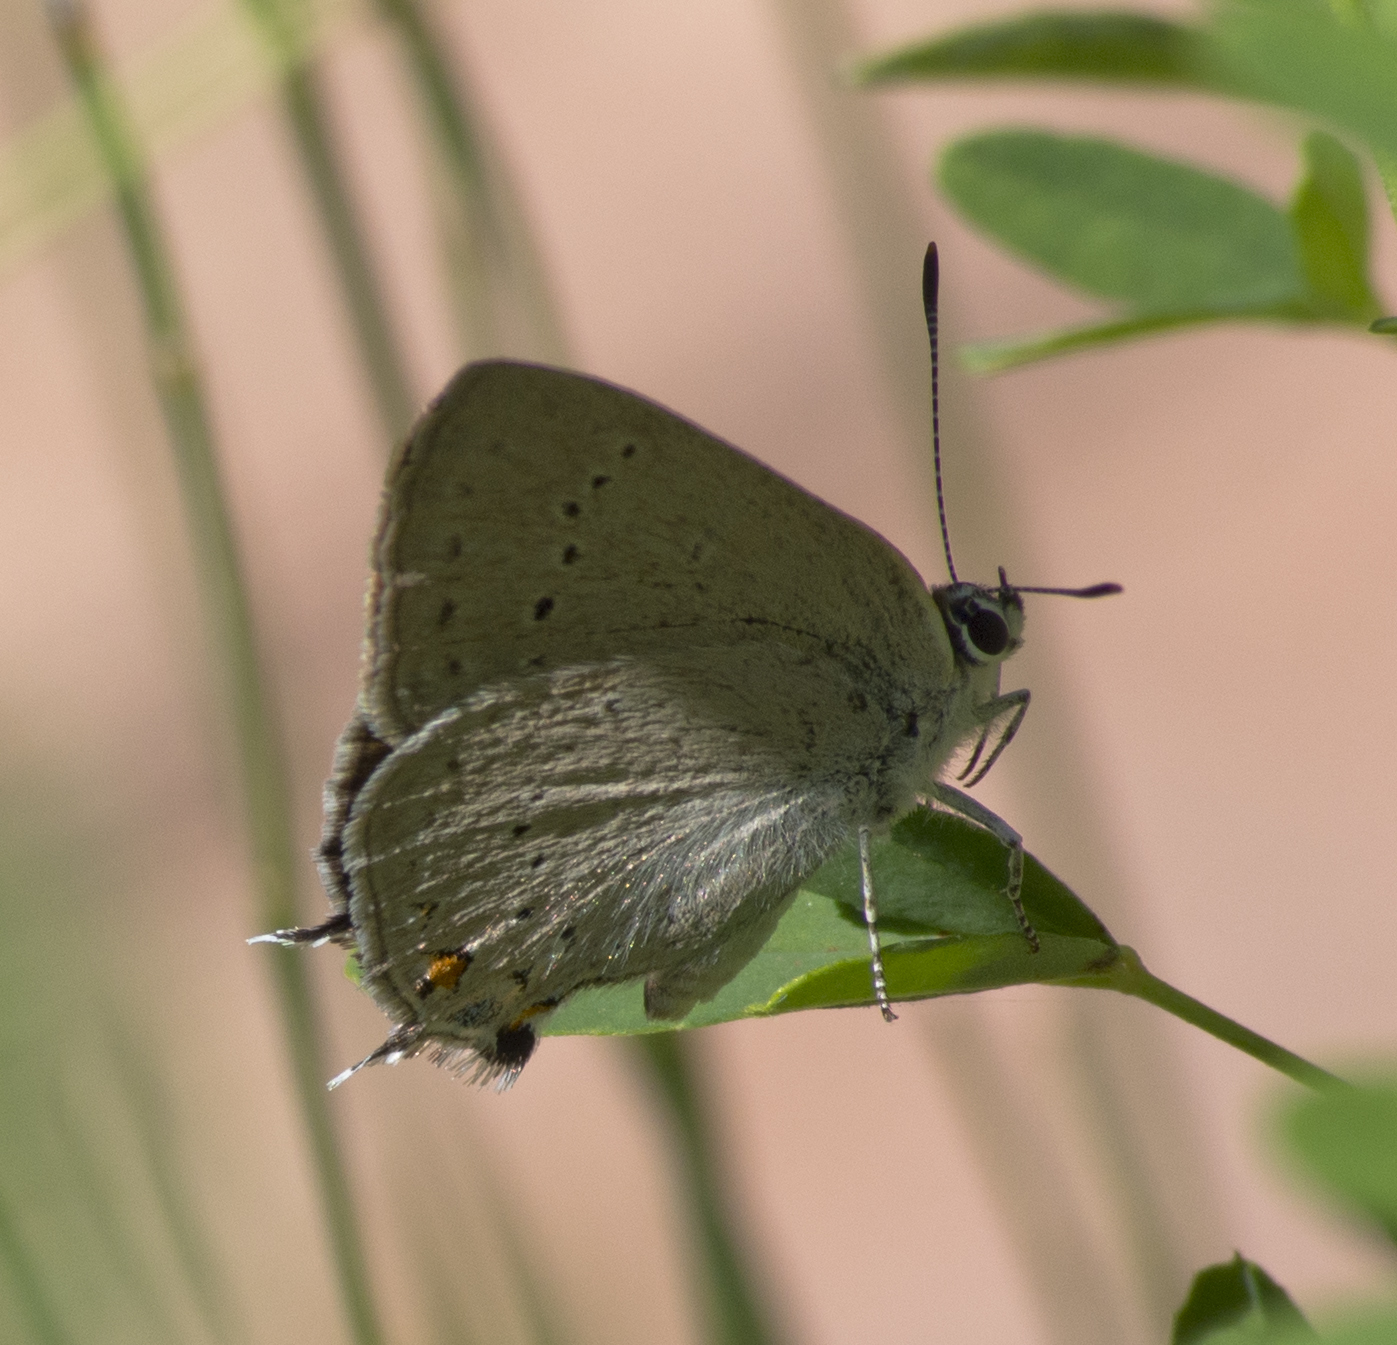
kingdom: Animalia
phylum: Arthropoda
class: Insecta
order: Lepidoptera
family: Lycaenidae
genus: Strymon
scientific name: Strymon sylvinus
